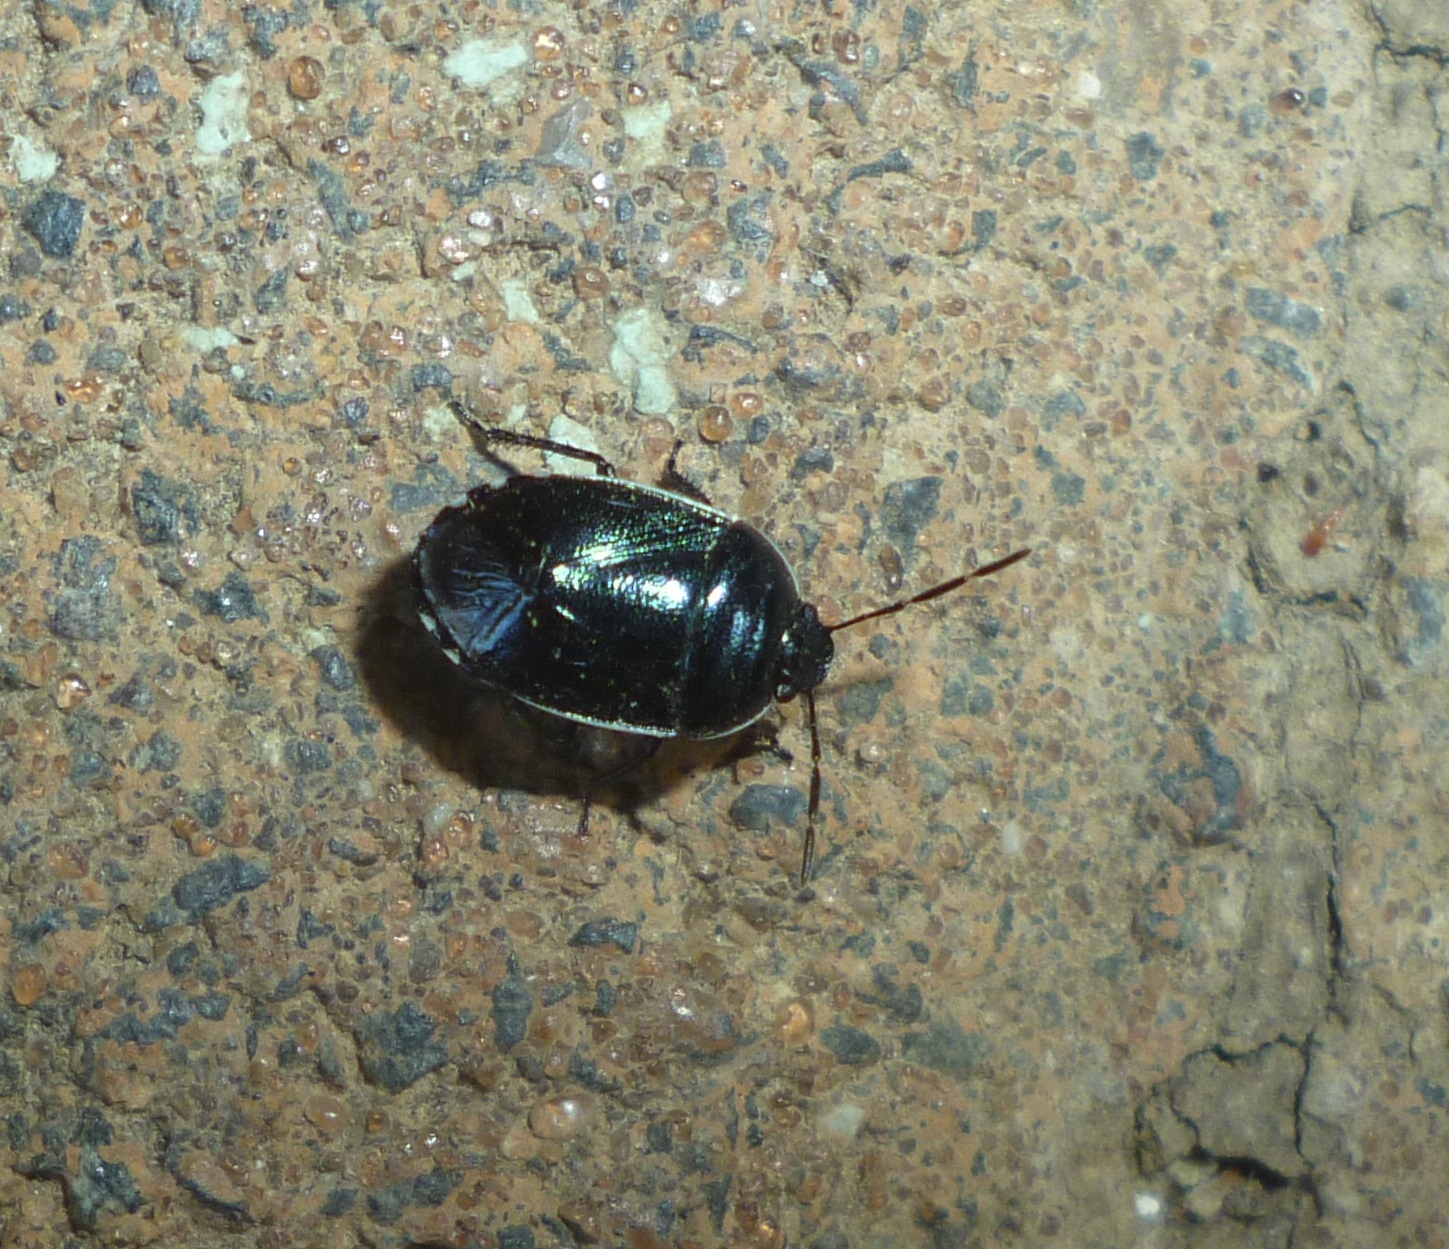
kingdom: Animalia
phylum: Arthropoda
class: Insecta
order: Hemiptera
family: Cydnidae
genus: Canthophorus
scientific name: Canthophorus melanopterus
